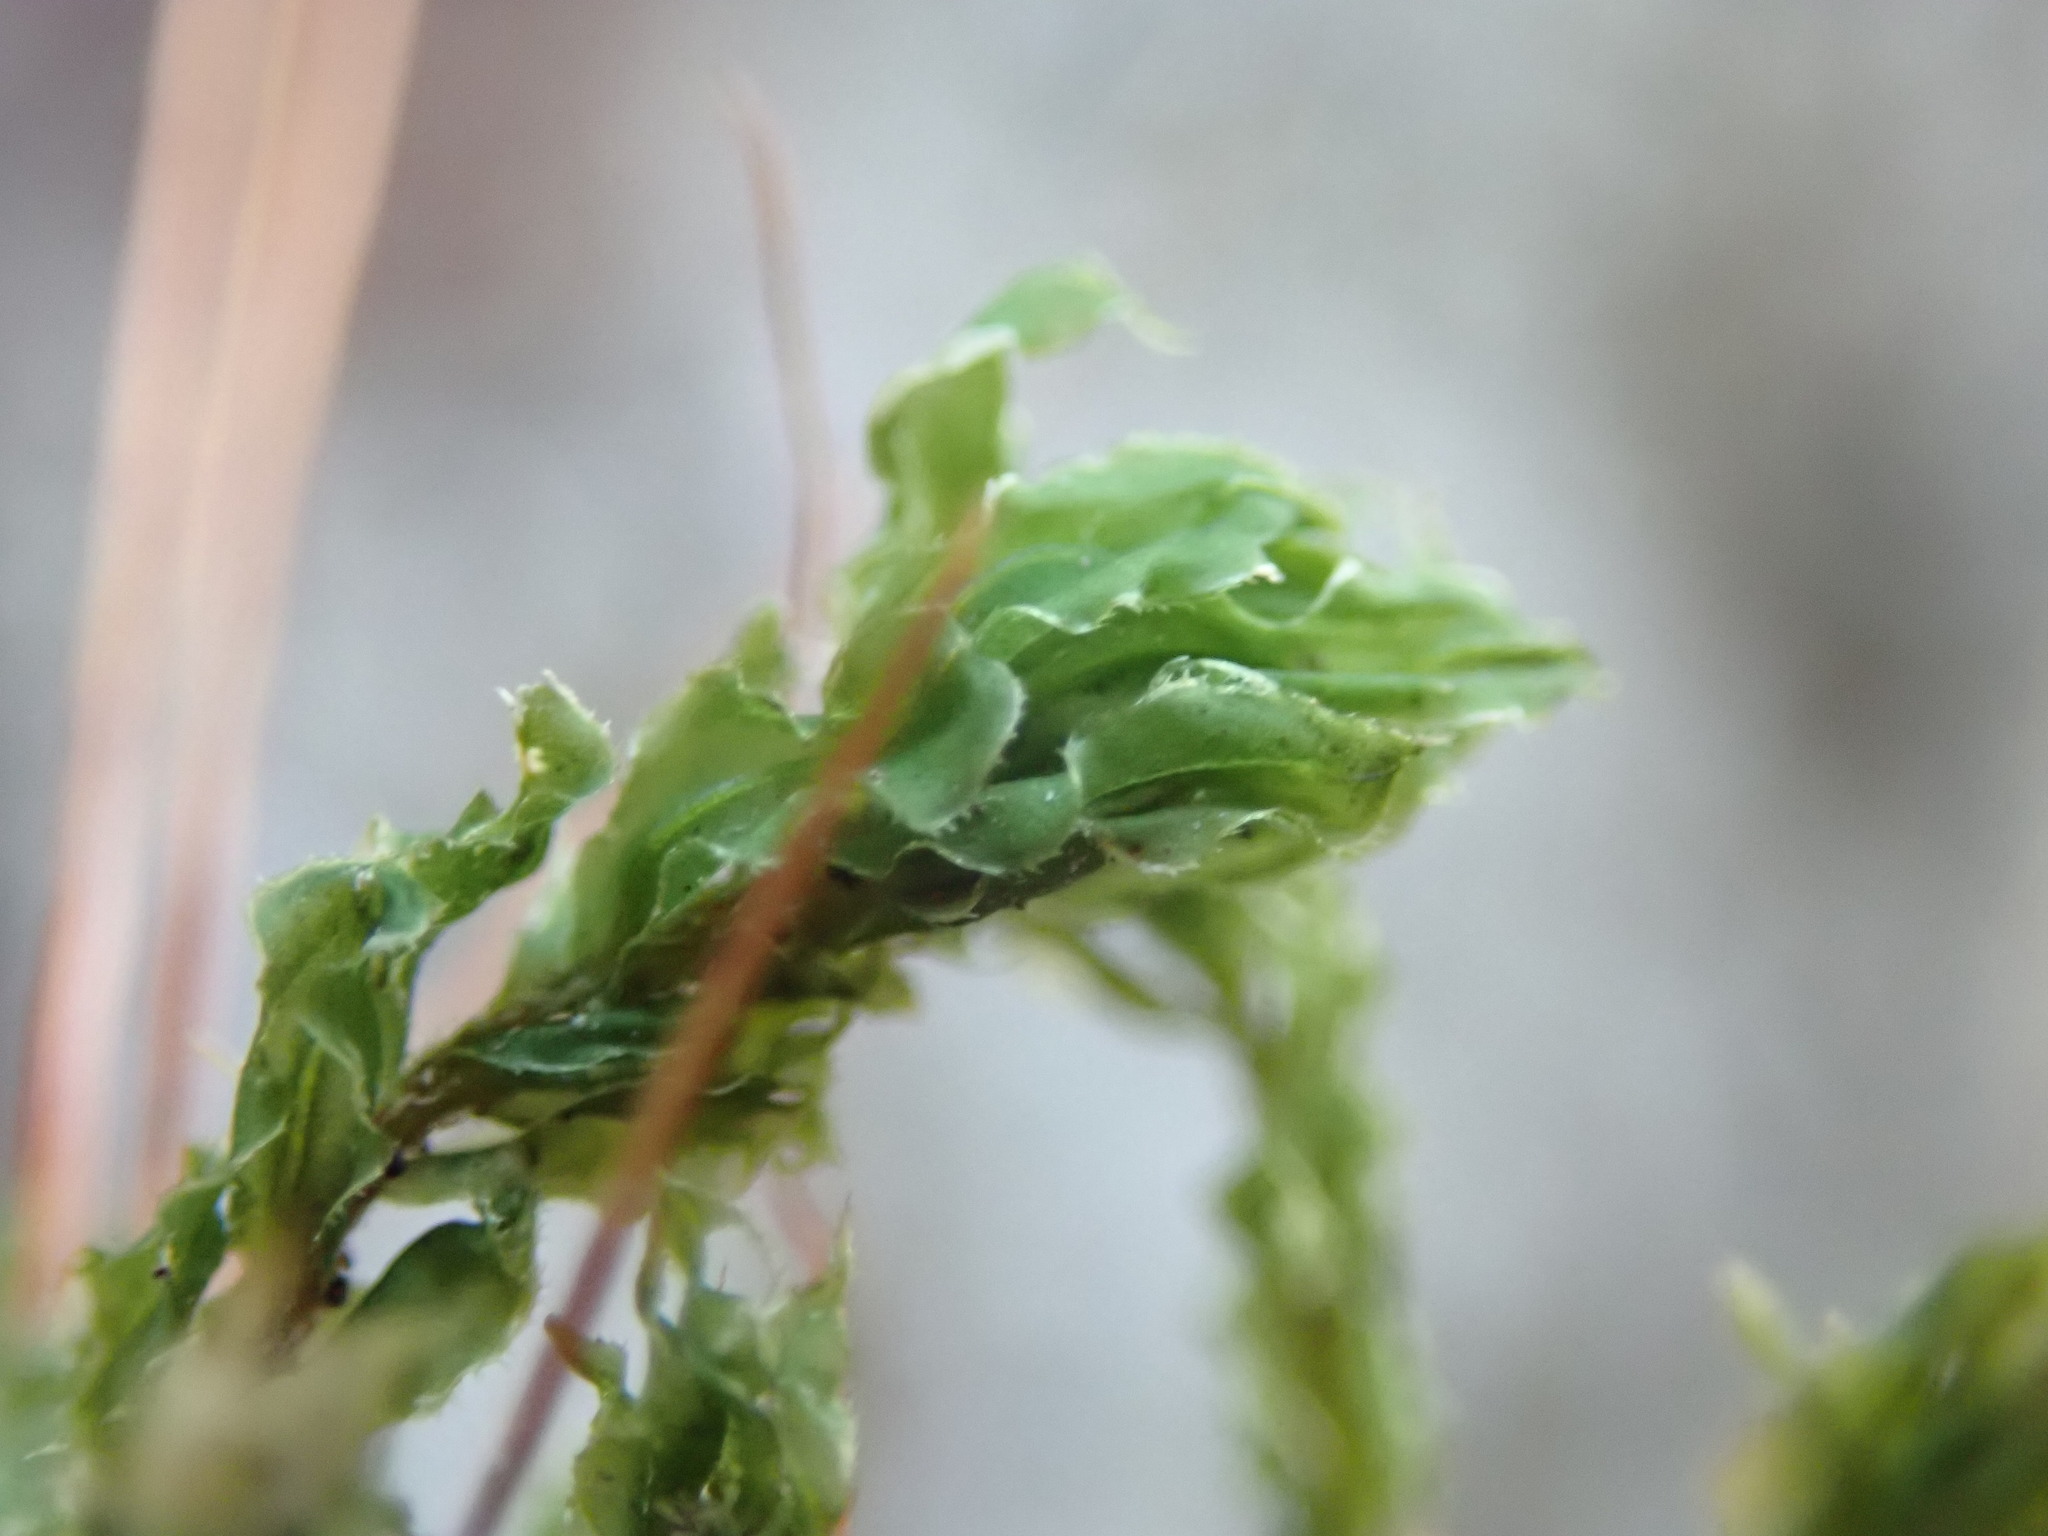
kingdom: Plantae
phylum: Bryophyta
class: Bryopsida
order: Bryales
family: Mniaceae
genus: Plagiomnium
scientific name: Plagiomnium venustum
